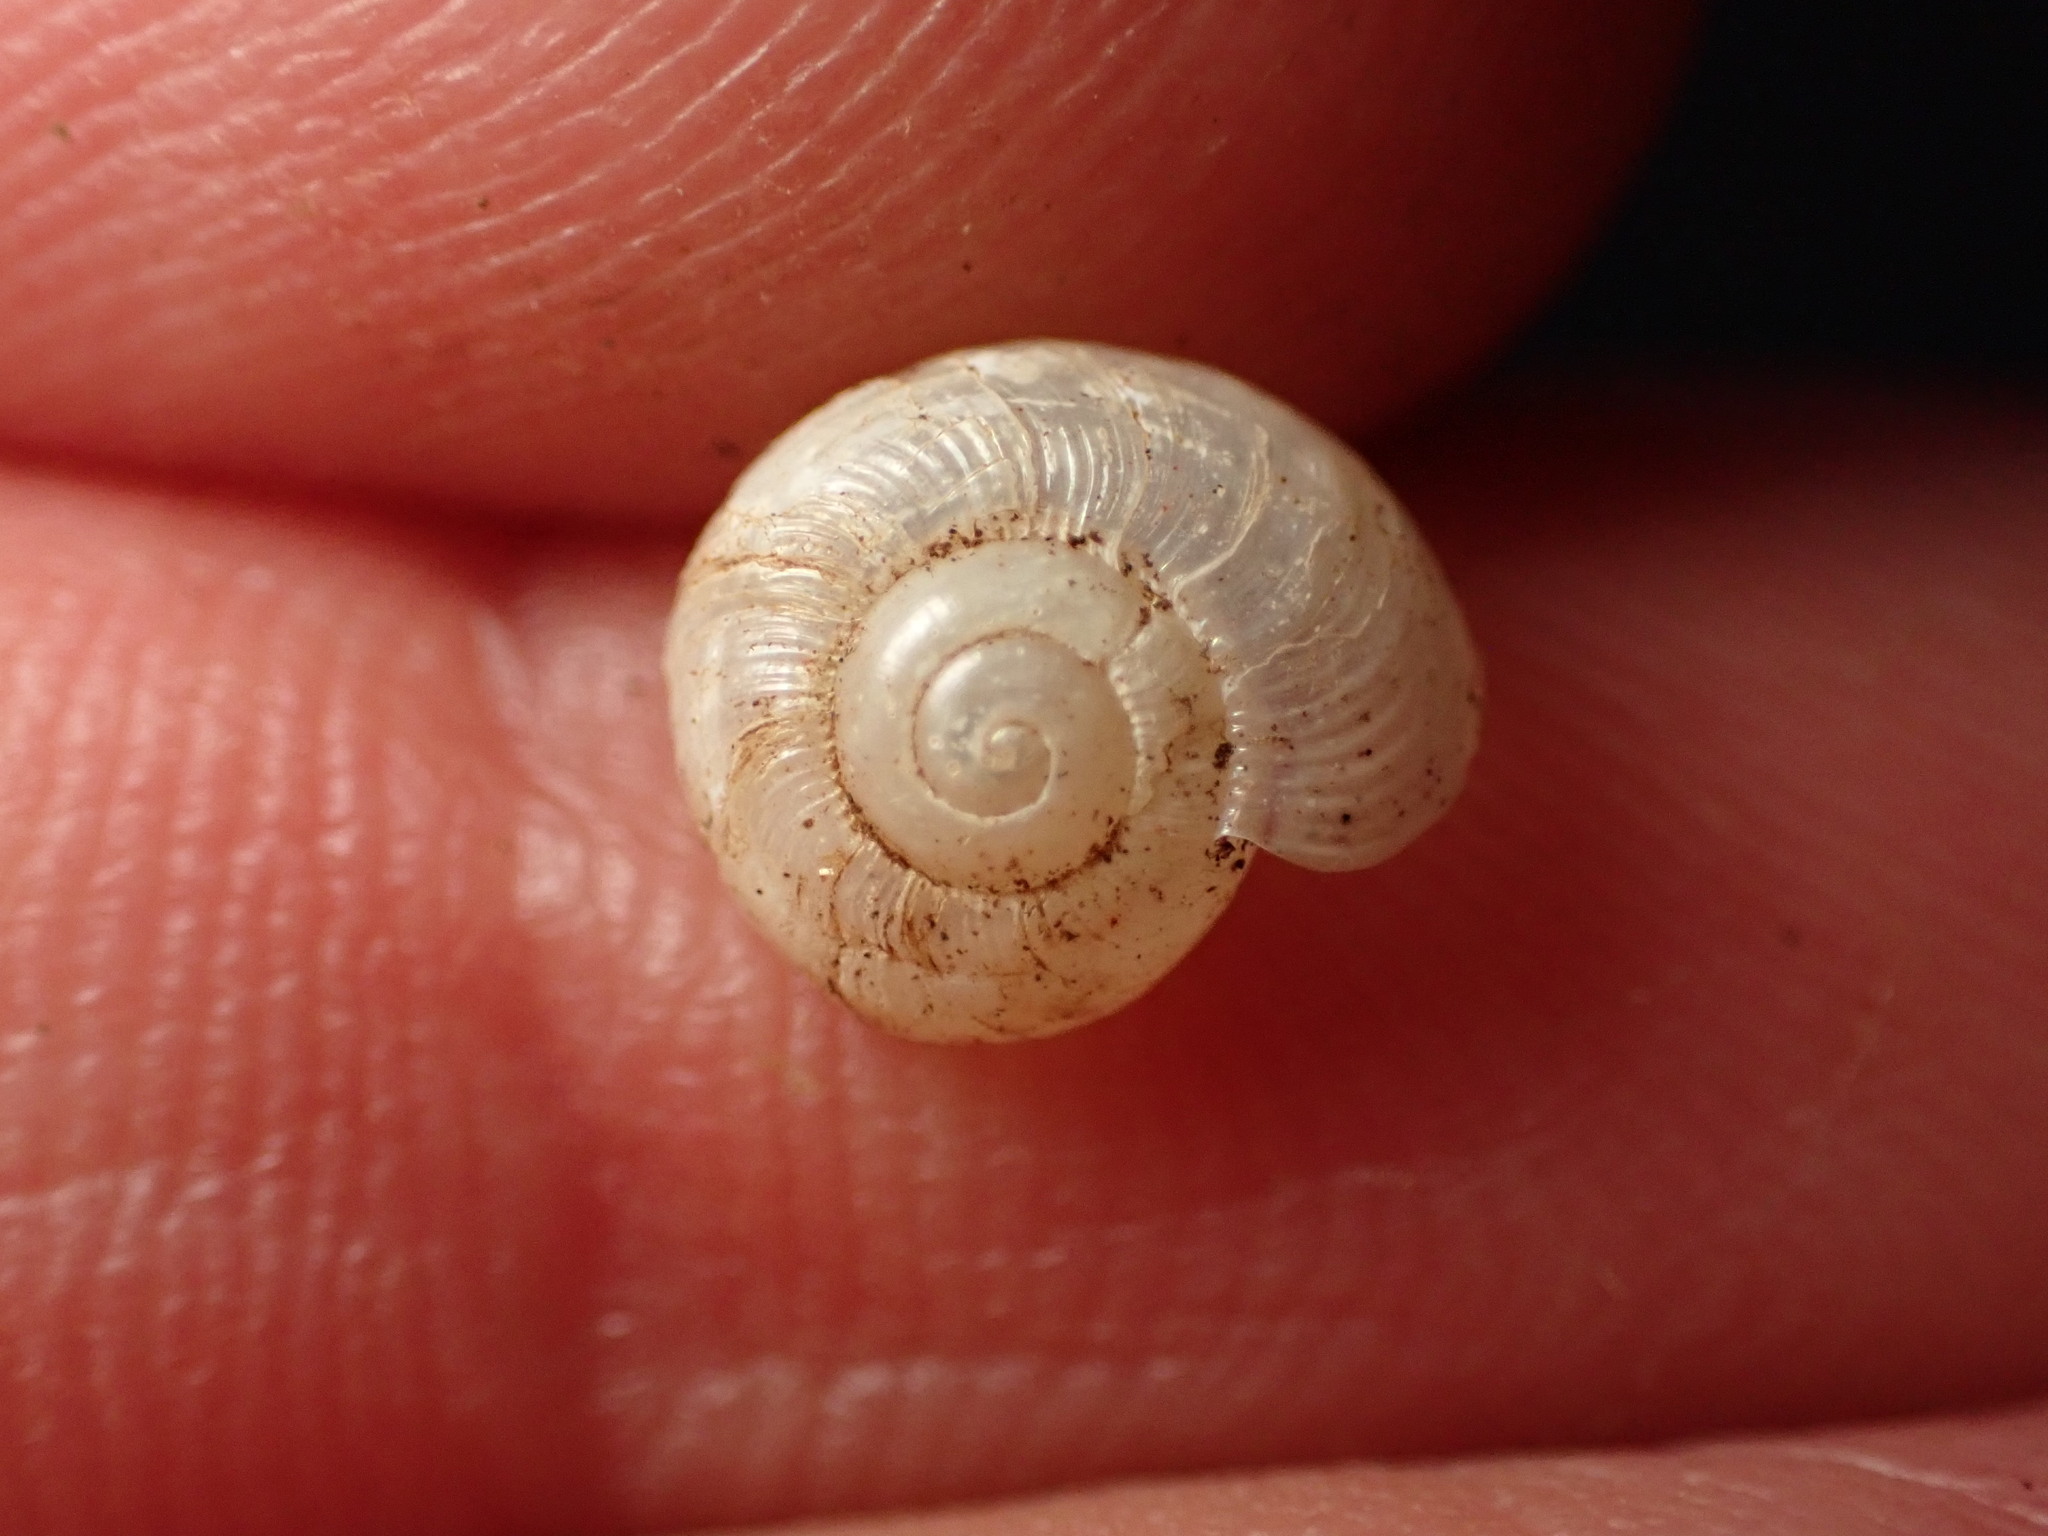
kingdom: Animalia
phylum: Mollusca
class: Gastropoda
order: Stylommatophora
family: Streptaxidae
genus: Tayloria
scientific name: Tayloria kibweziensis
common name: Snail
